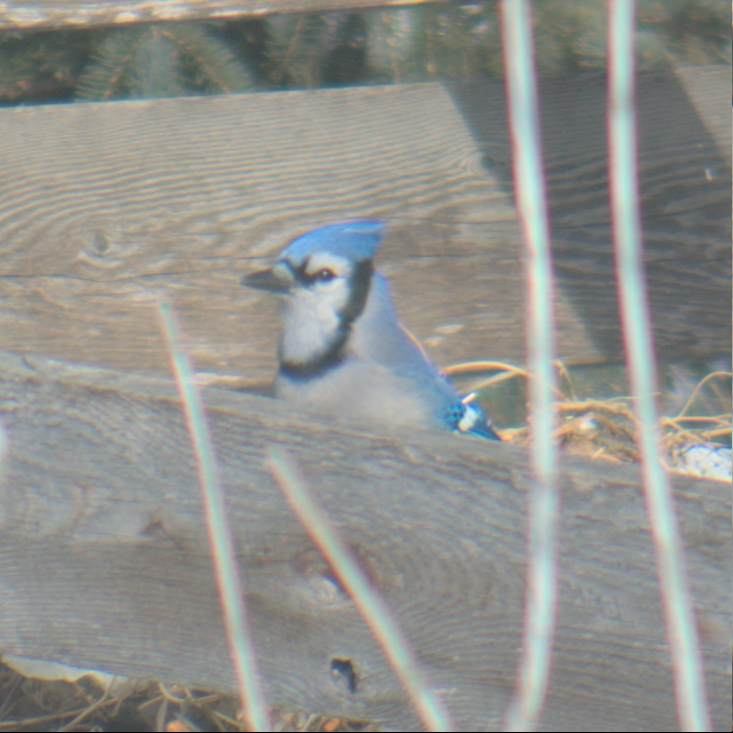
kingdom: Animalia
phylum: Chordata
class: Aves
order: Passeriformes
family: Corvidae
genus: Cyanocitta
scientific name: Cyanocitta cristata
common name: Blue jay
